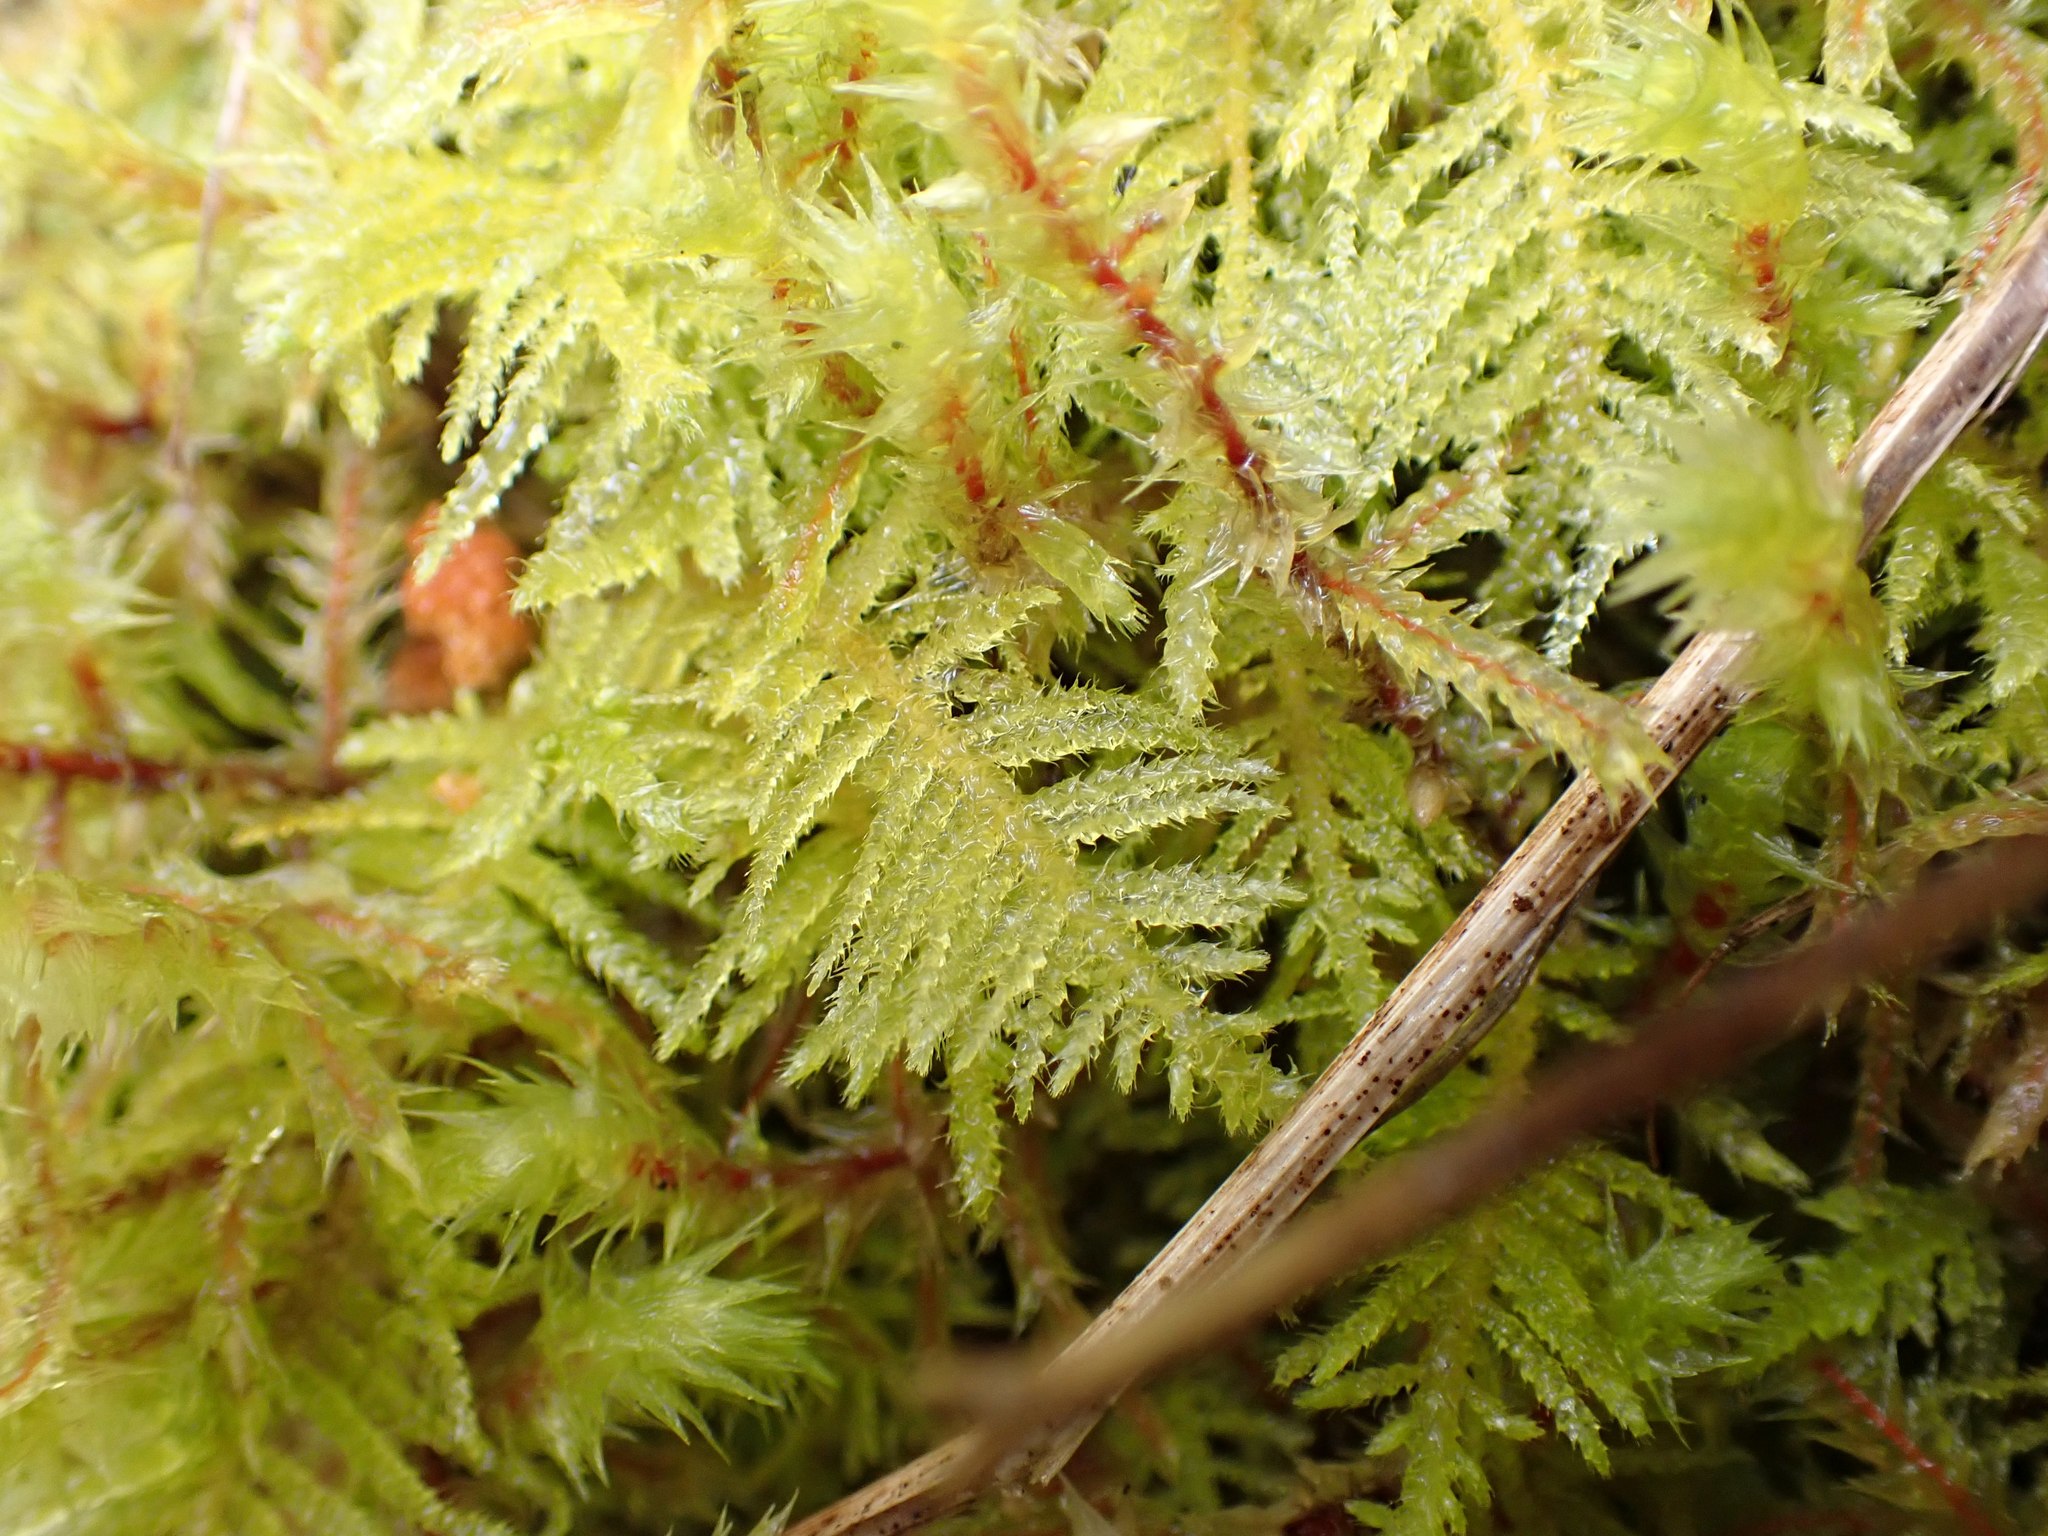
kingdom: Plantae
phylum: Bryophyta
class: Bryopsida
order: Hypnales
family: Brachytheciaceae
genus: Kindbergia
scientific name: Kindbergia oregana
